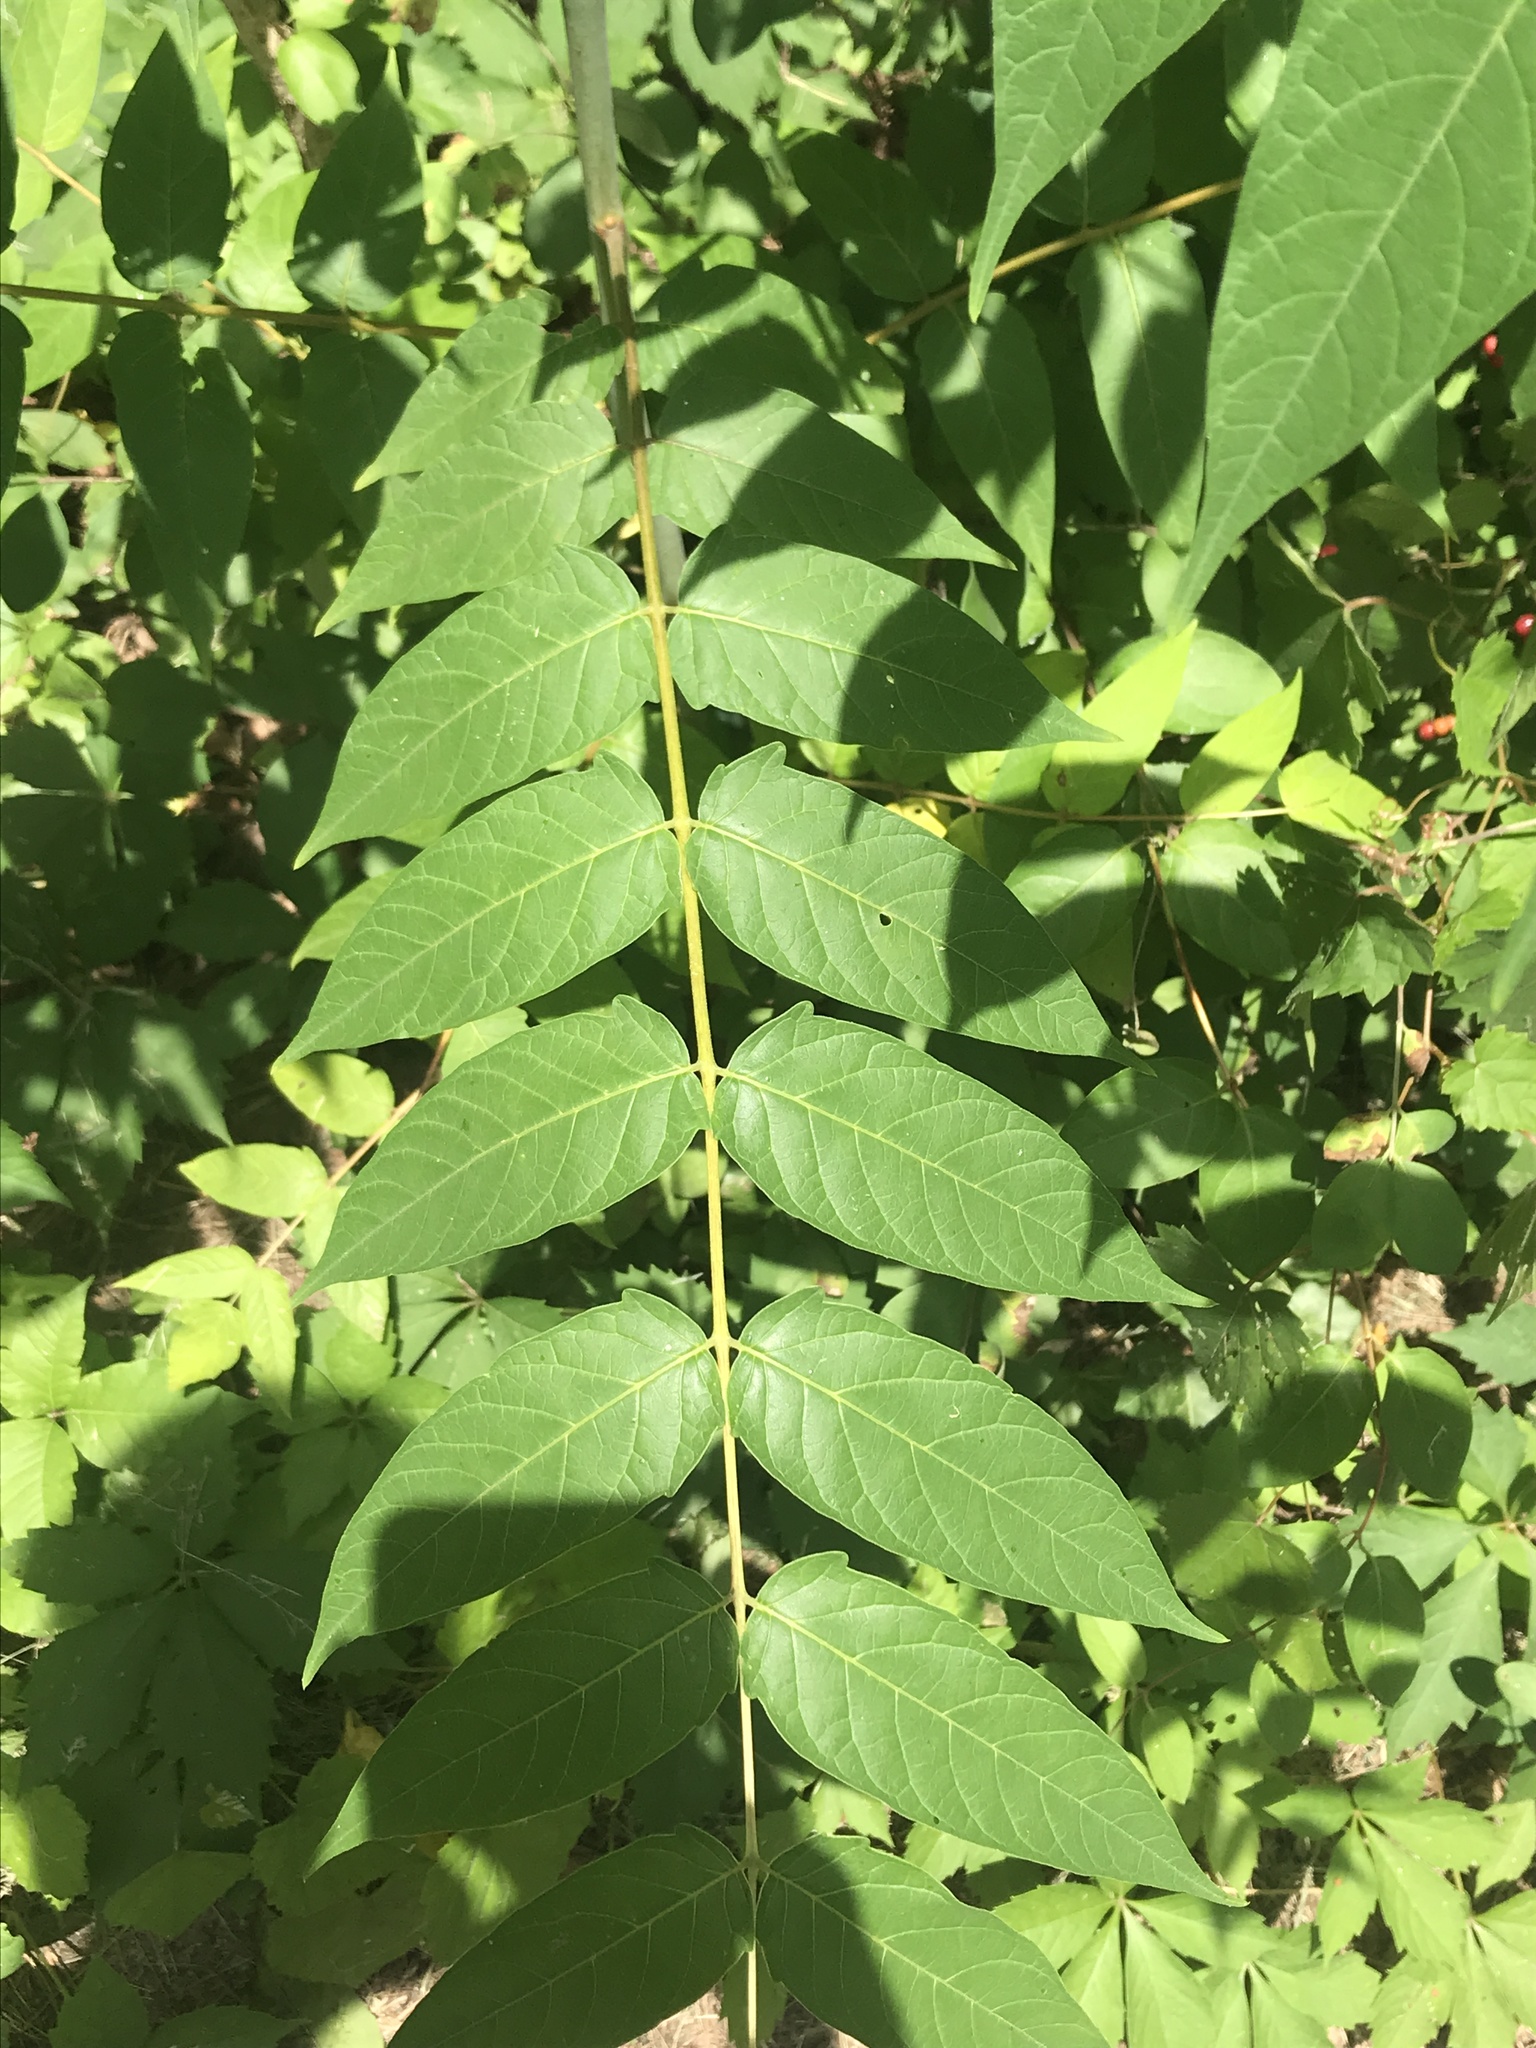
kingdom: Plantae
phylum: Tracheophyta
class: Magnoliopsida
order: Sapindales
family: Simaroubaceae
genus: Ailanthus
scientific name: Ailanthus altissima
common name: Tree-of-heaven
